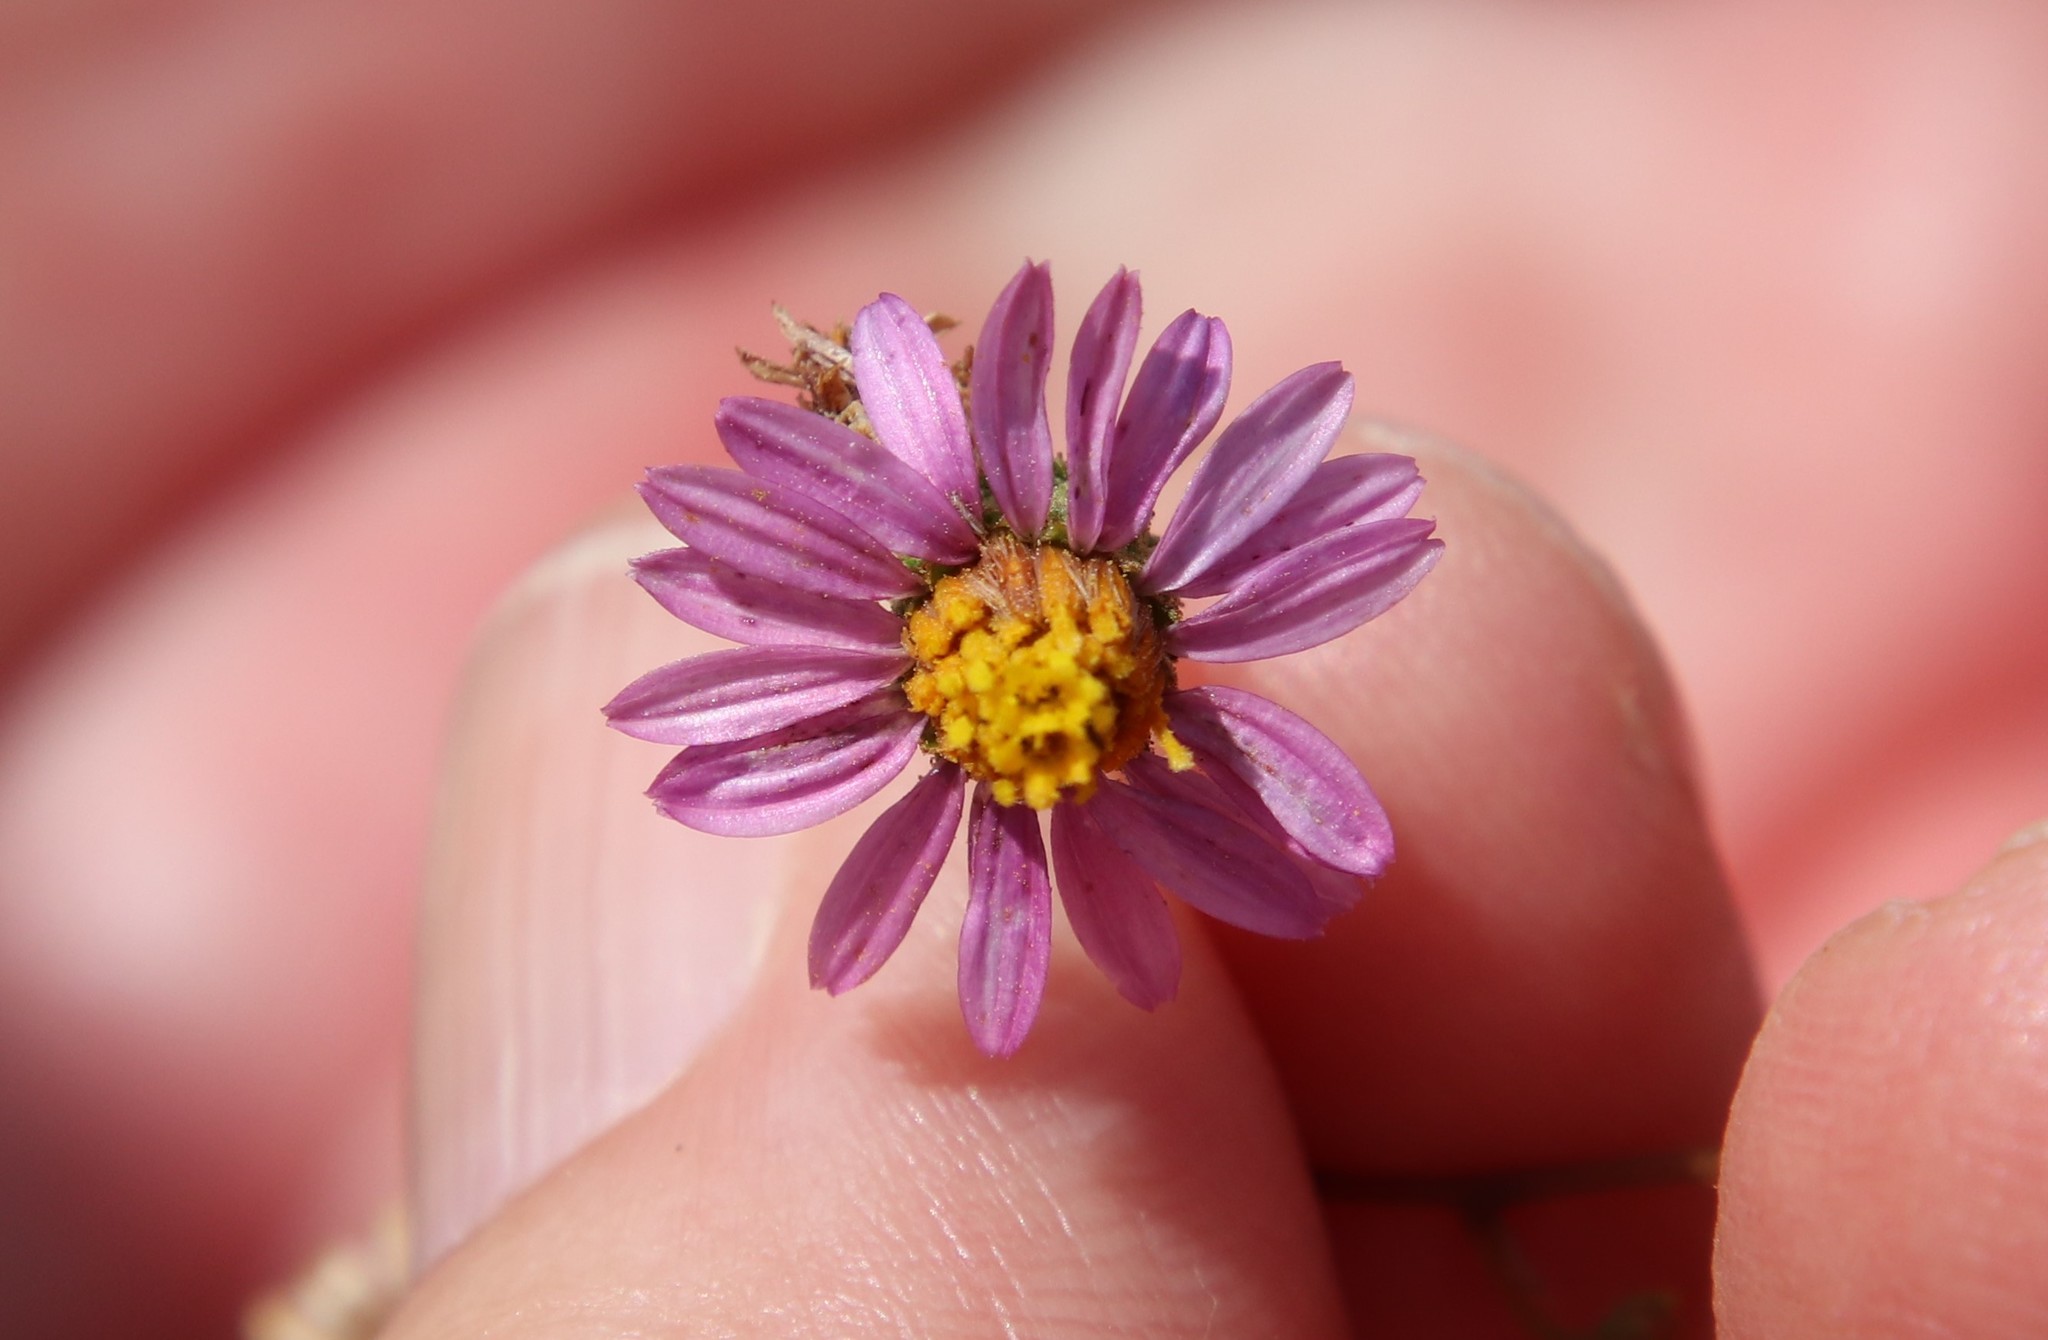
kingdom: Plantae
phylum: Tracheophyta
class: Magnoliopsida
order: Asterales
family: Asteraceae
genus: Corethrogyne
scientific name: Corethrogyne filaginifolia
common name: Sand-aster
